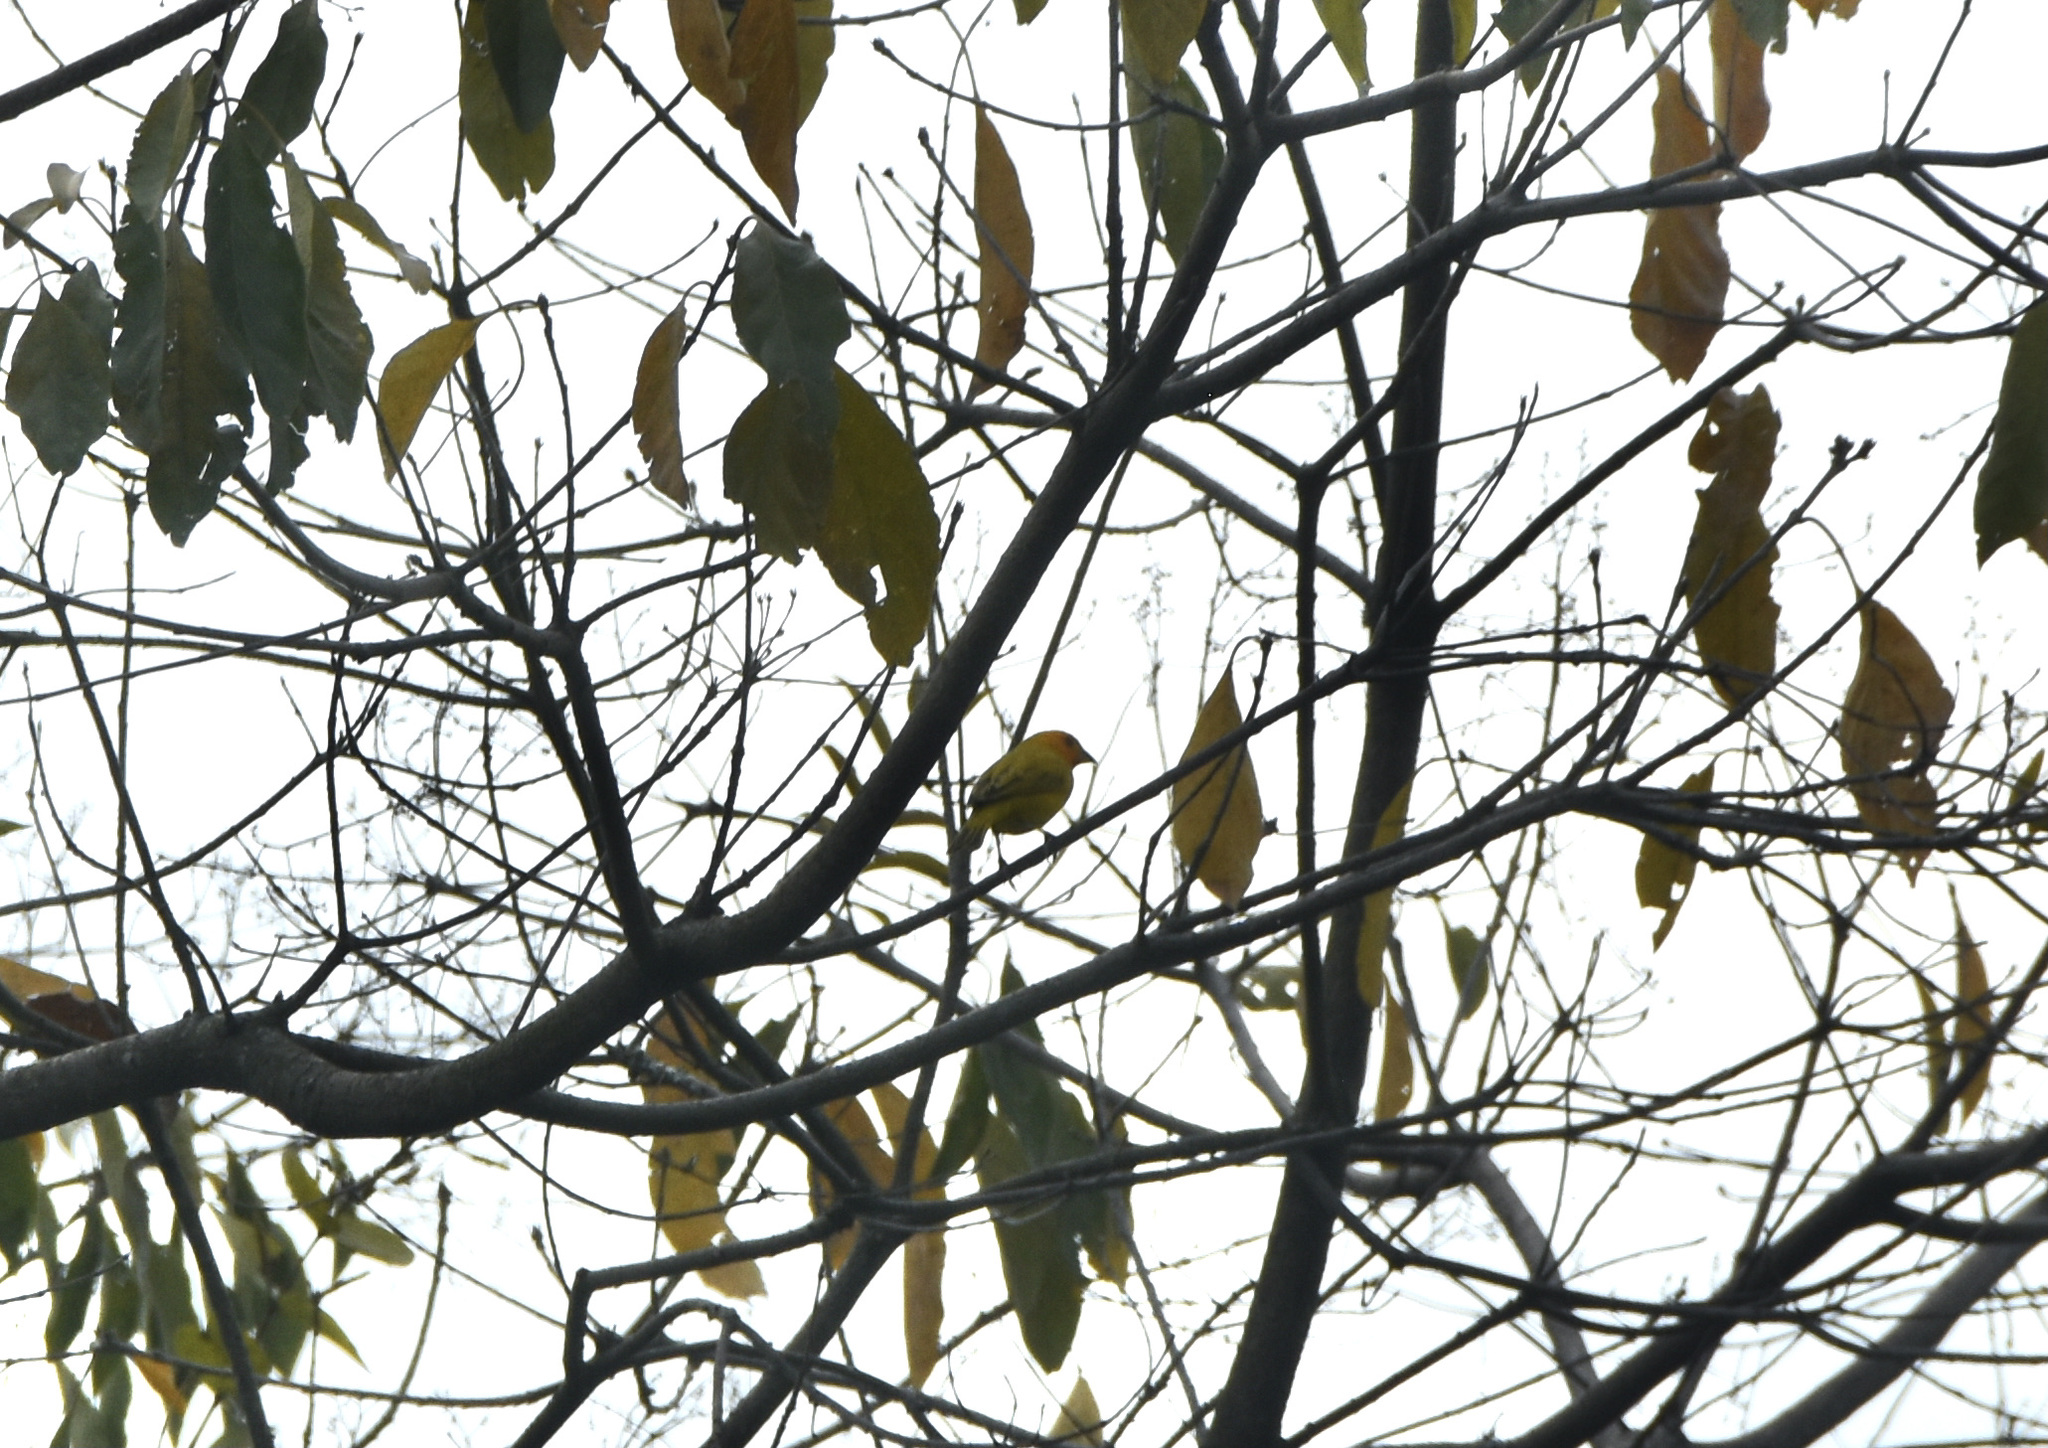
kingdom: Animalia
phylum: Chordata
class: Aves
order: Passeriformes
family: Thraupidae
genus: Sicalis
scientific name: Sicalis flaveola
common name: Saffron finch
